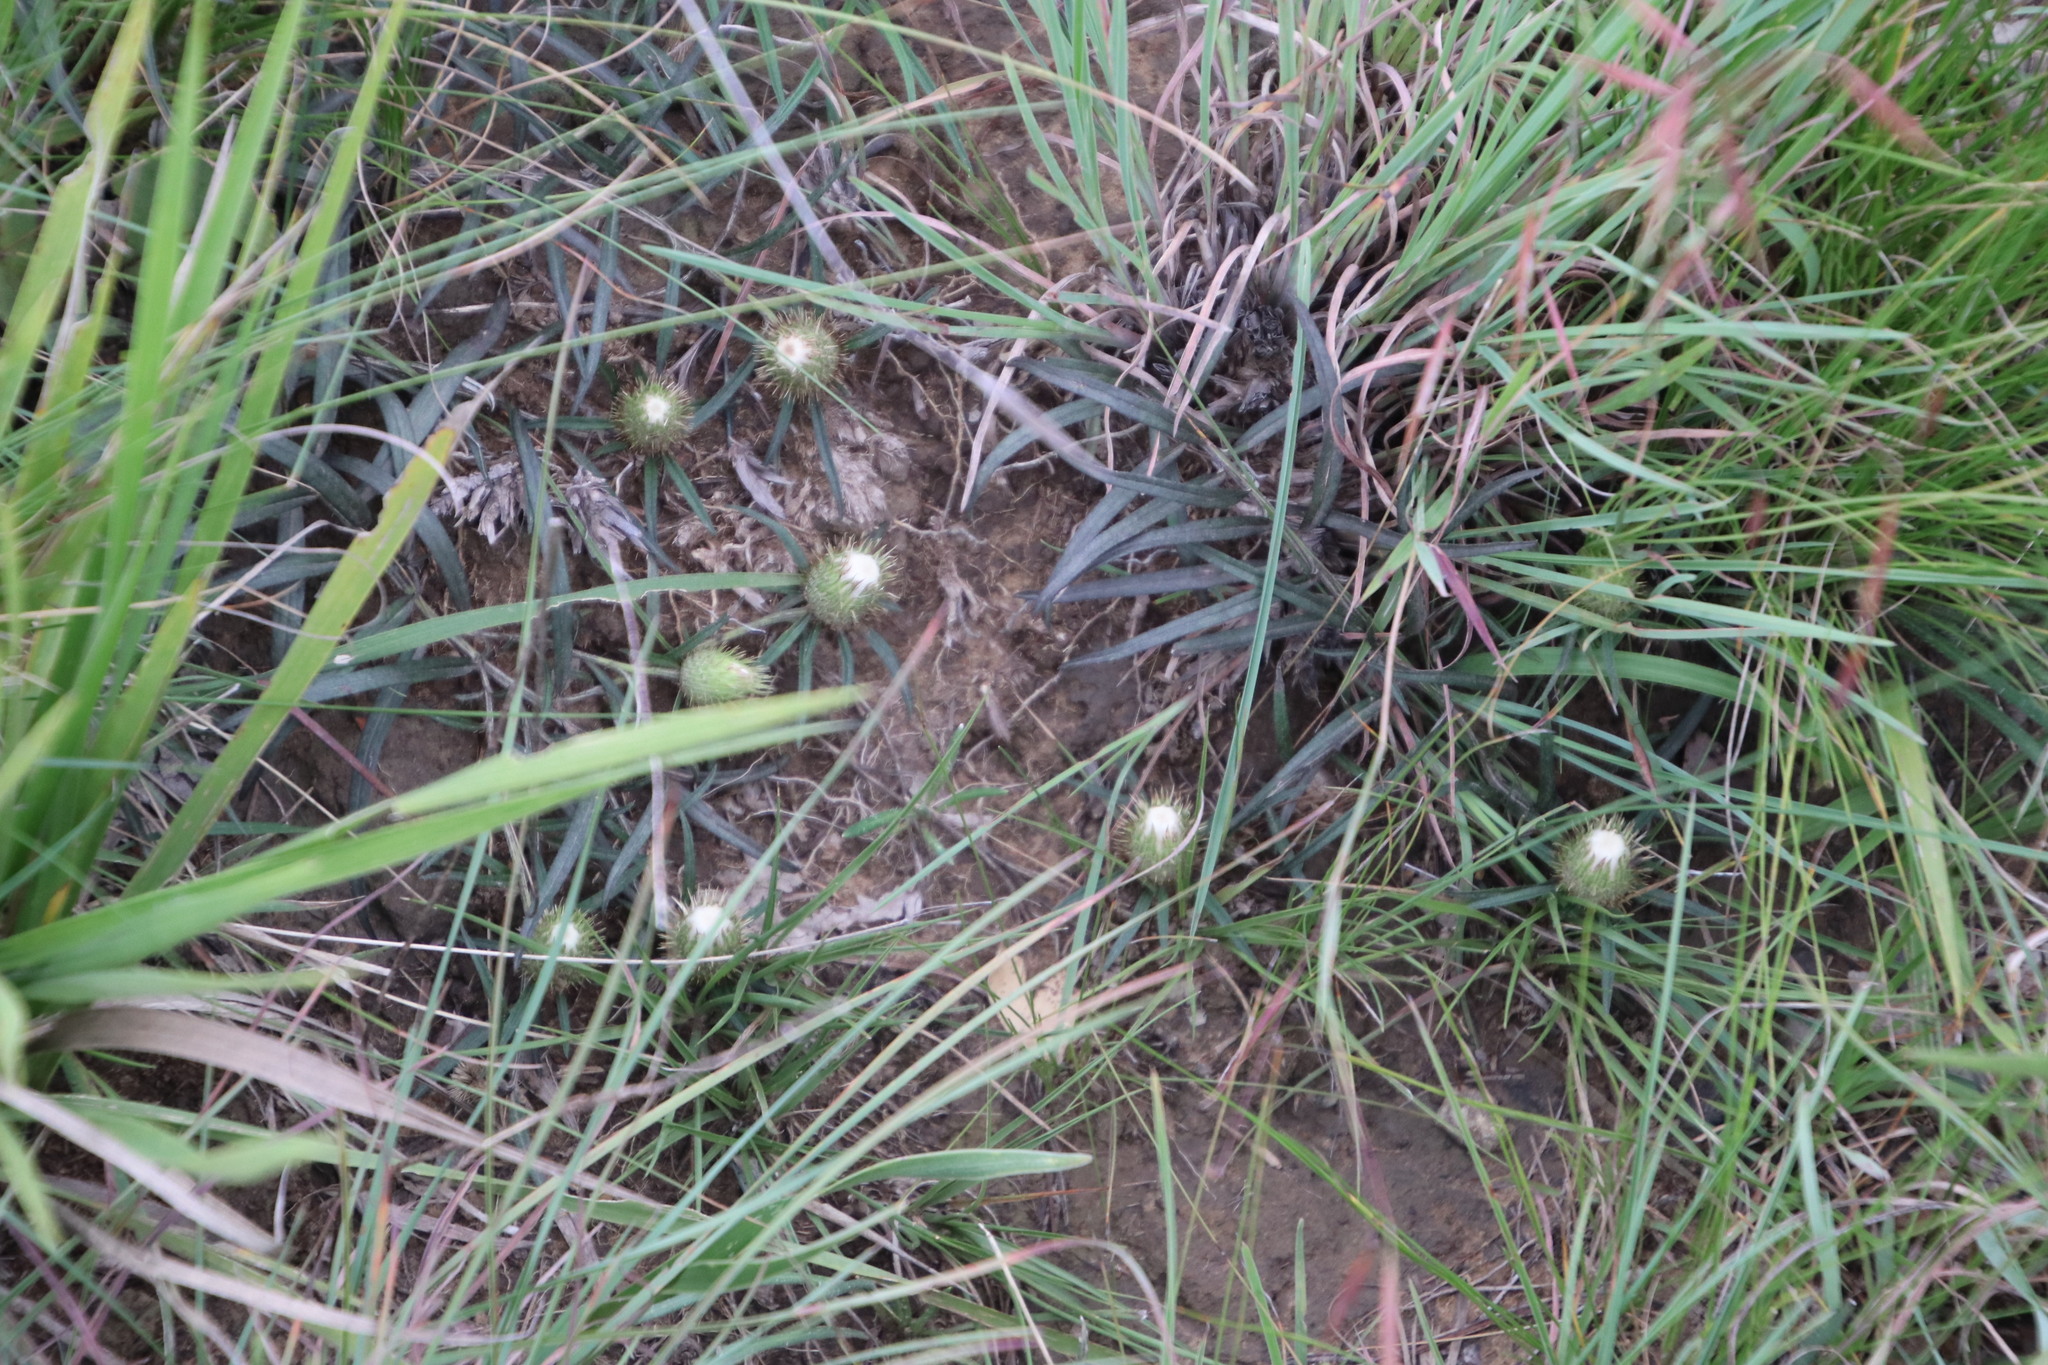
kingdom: Plantae
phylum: Tracheophyta
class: Magnoliopsida
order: Asterales
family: Asteraceae
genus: Dicoma
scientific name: Dicoma anomala
